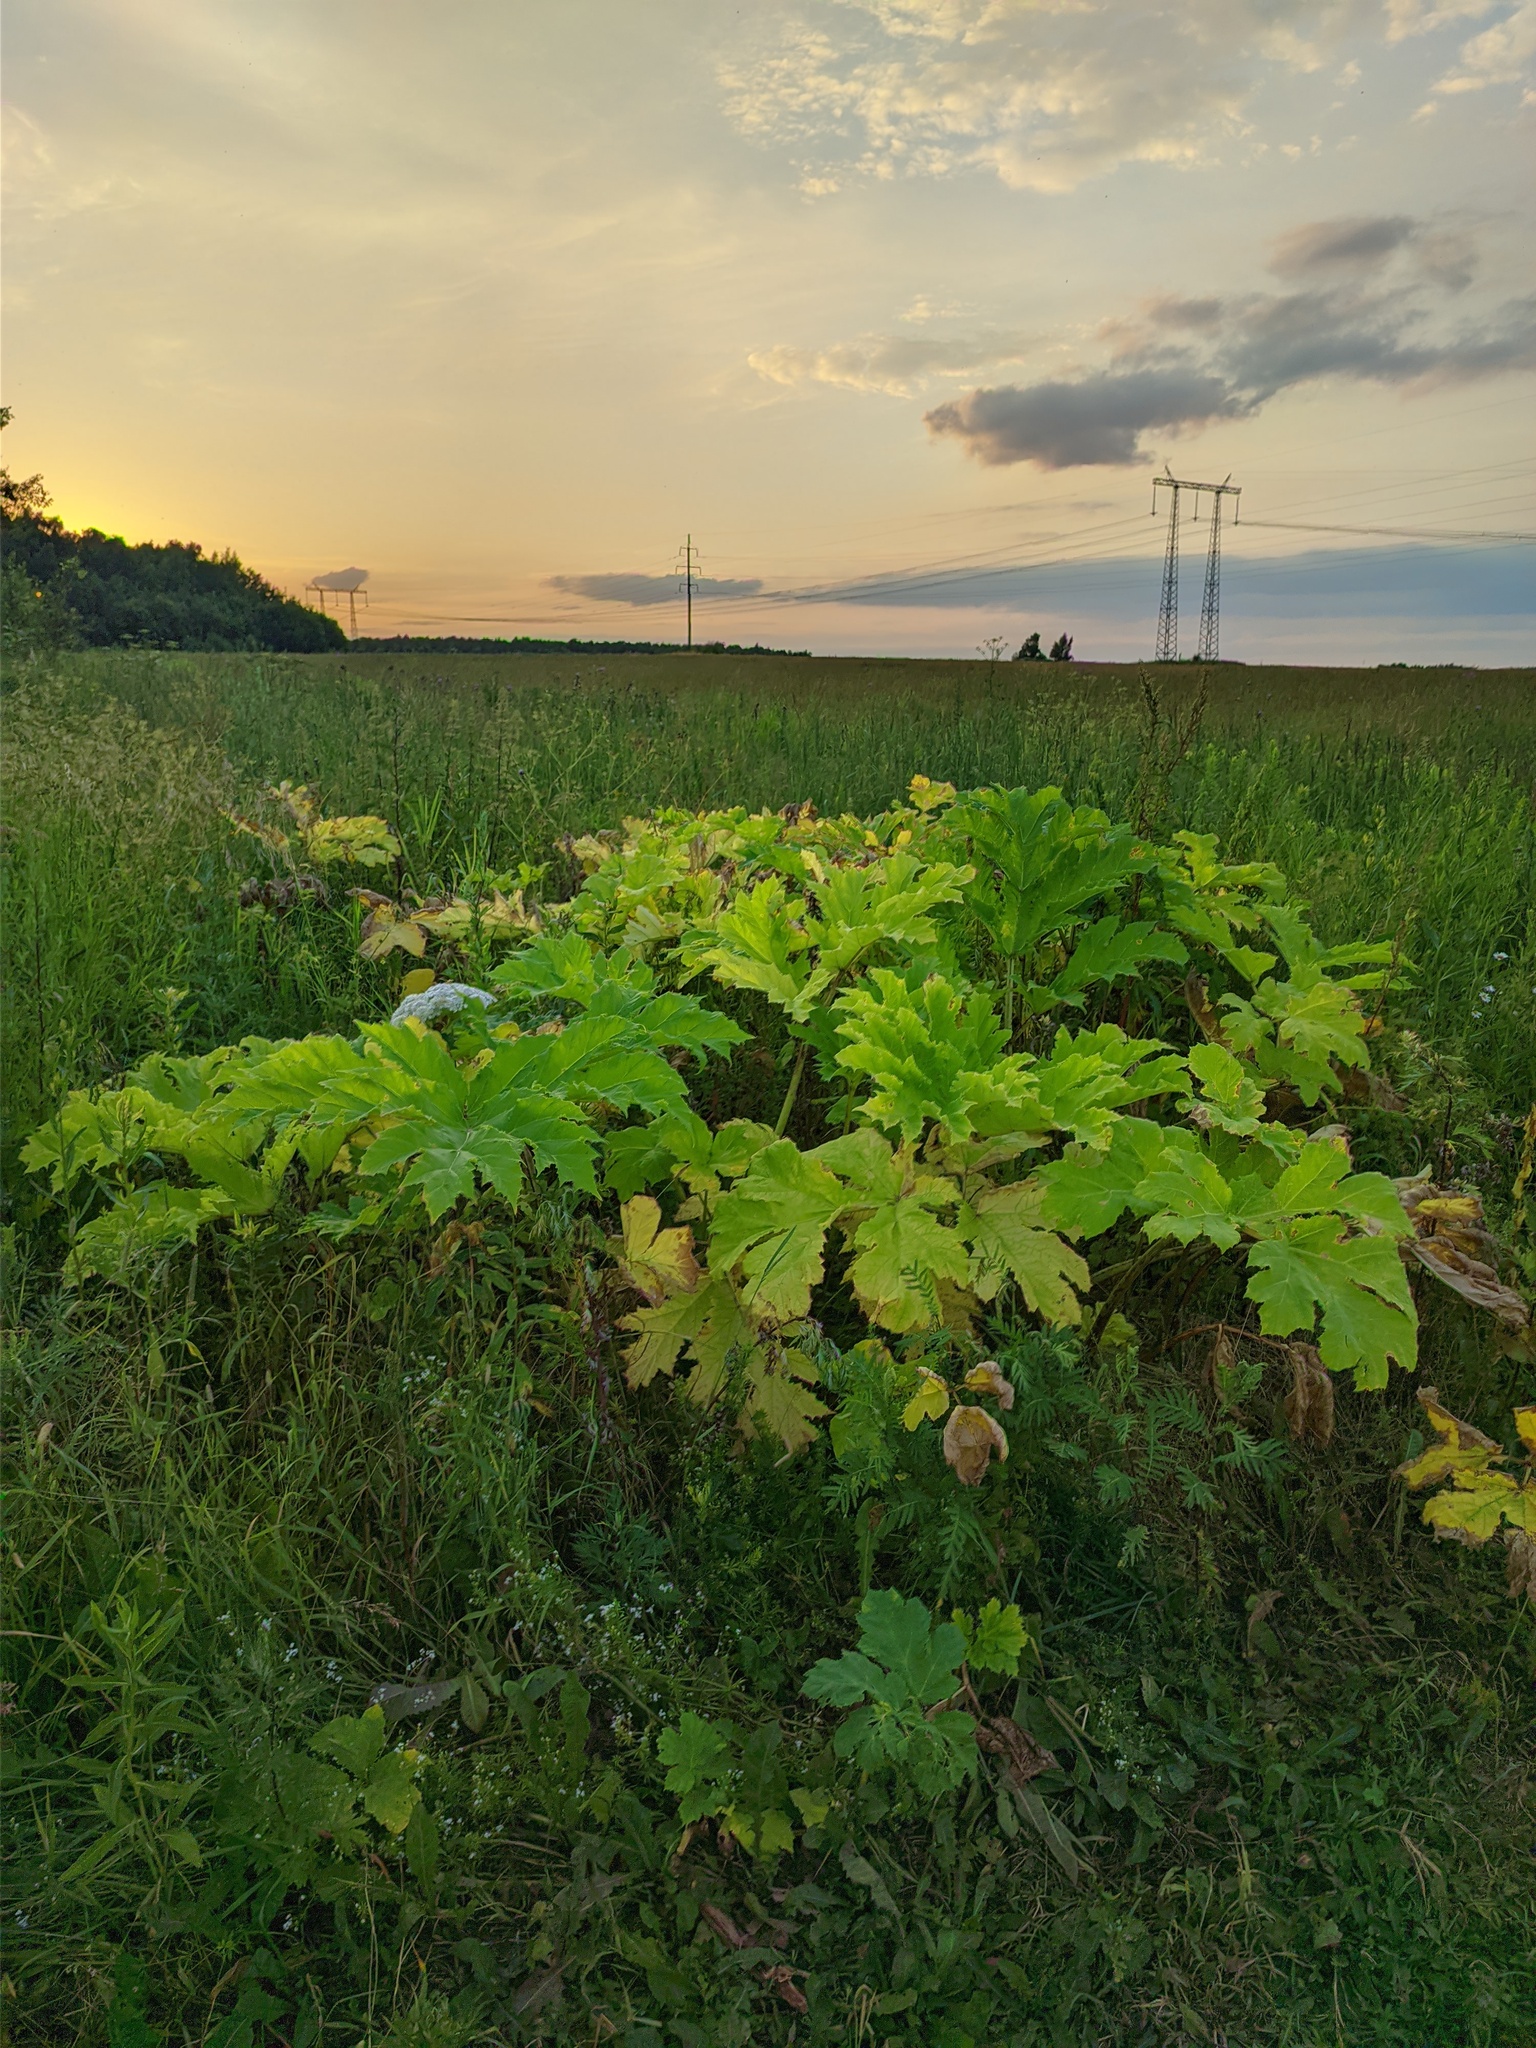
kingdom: Plantae
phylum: Tracheophyta
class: Magnoliopsida
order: Apiales
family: Apiaceae
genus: Heracleum
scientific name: Heracleum sosnowskyi
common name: Sosnowsky's hogweed
